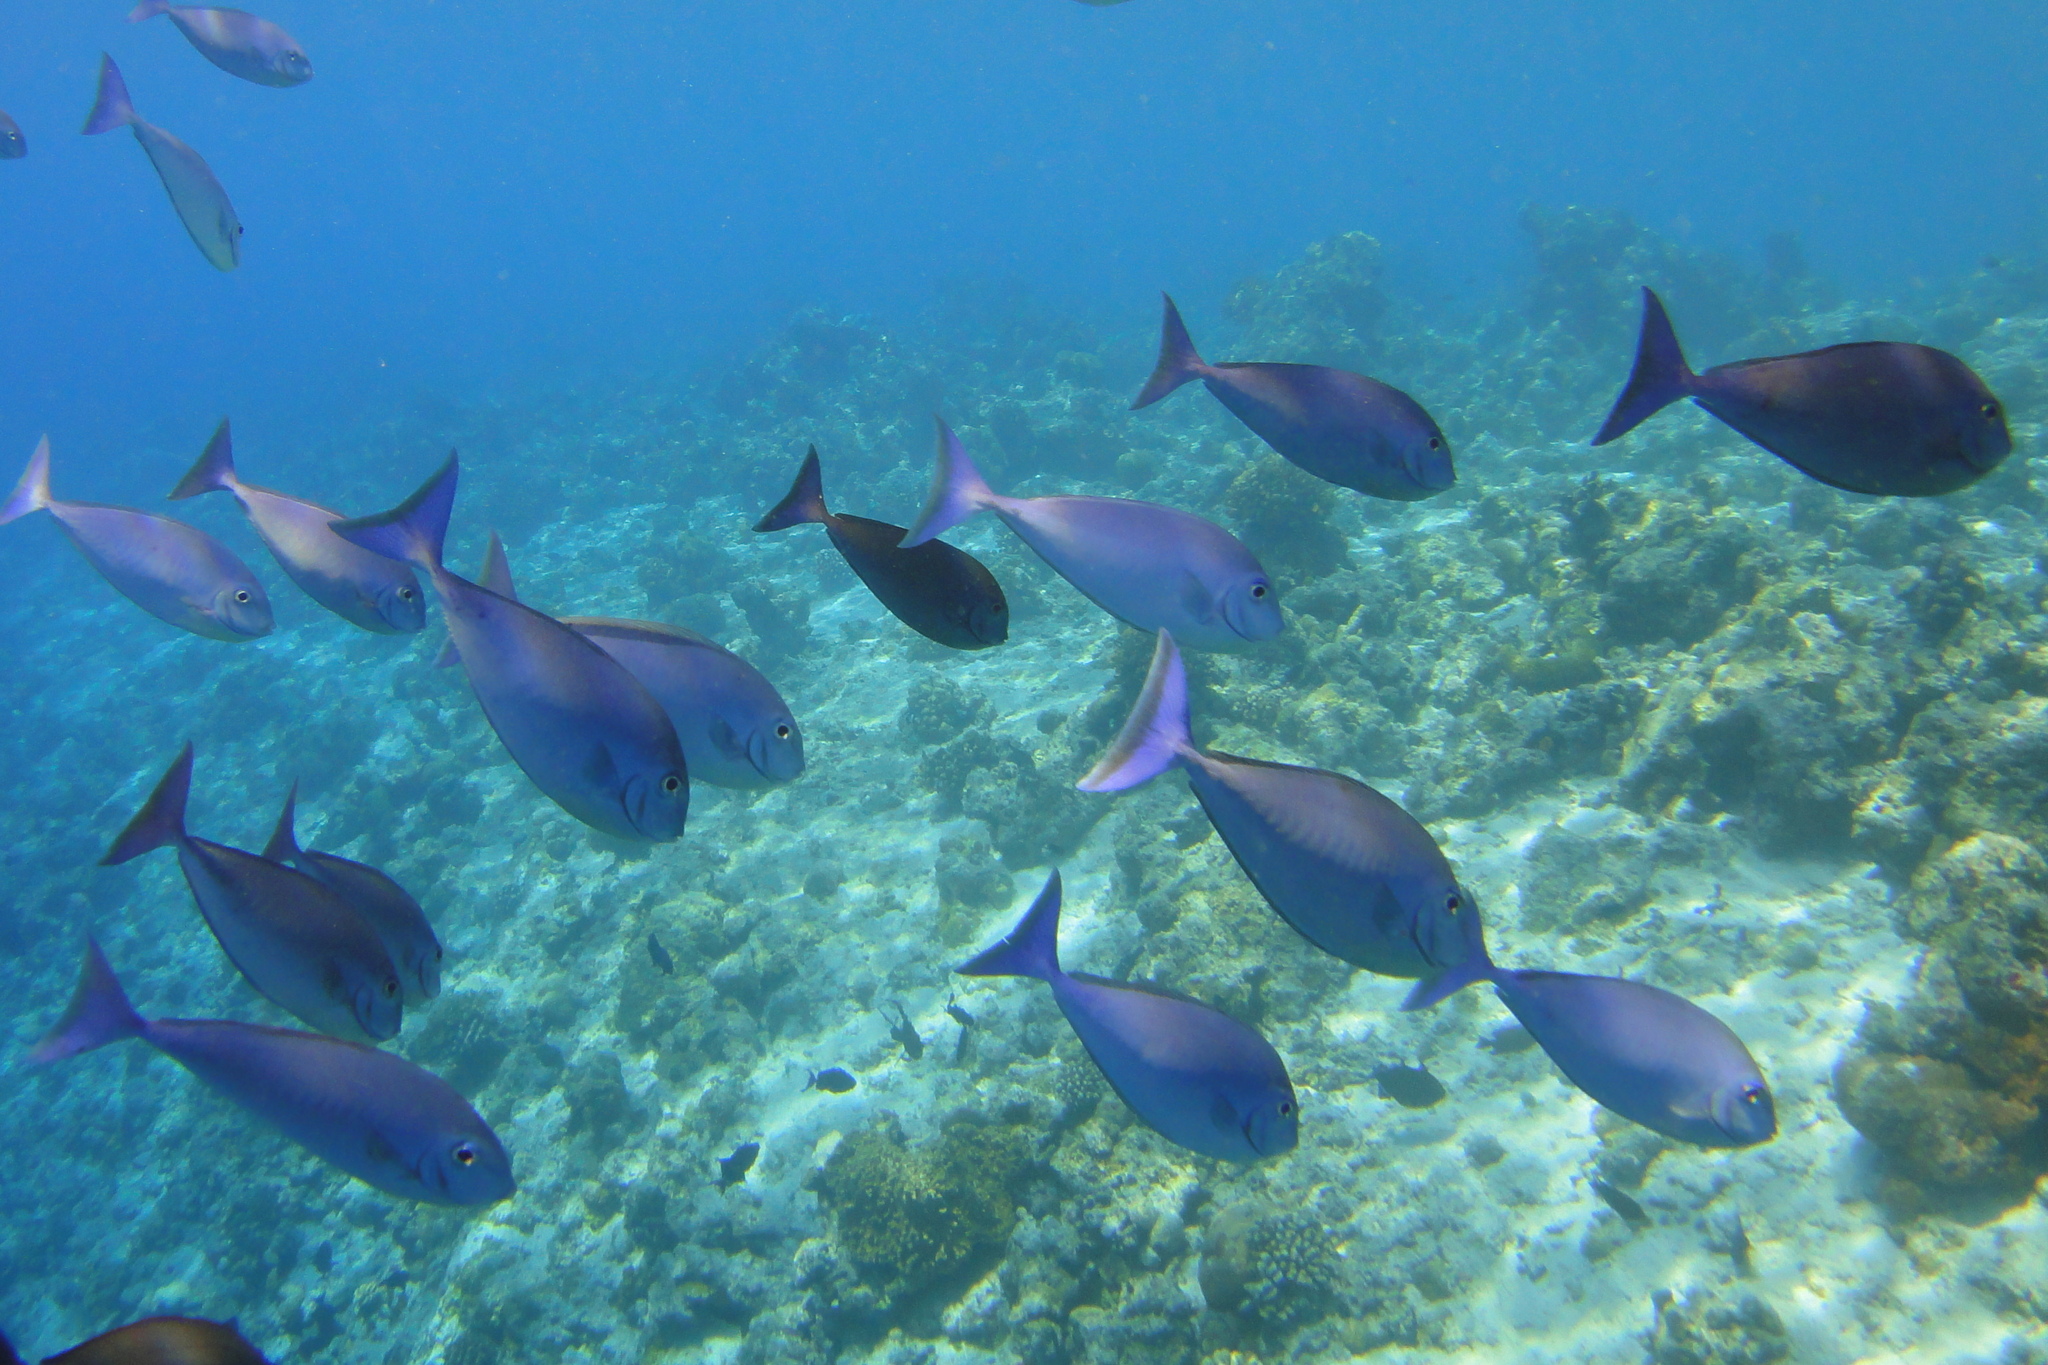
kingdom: Animalia
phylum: Chordata
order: Perciformes
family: Acanthuridae
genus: Naso
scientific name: Naso hexacanthus
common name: Black unicornfish
